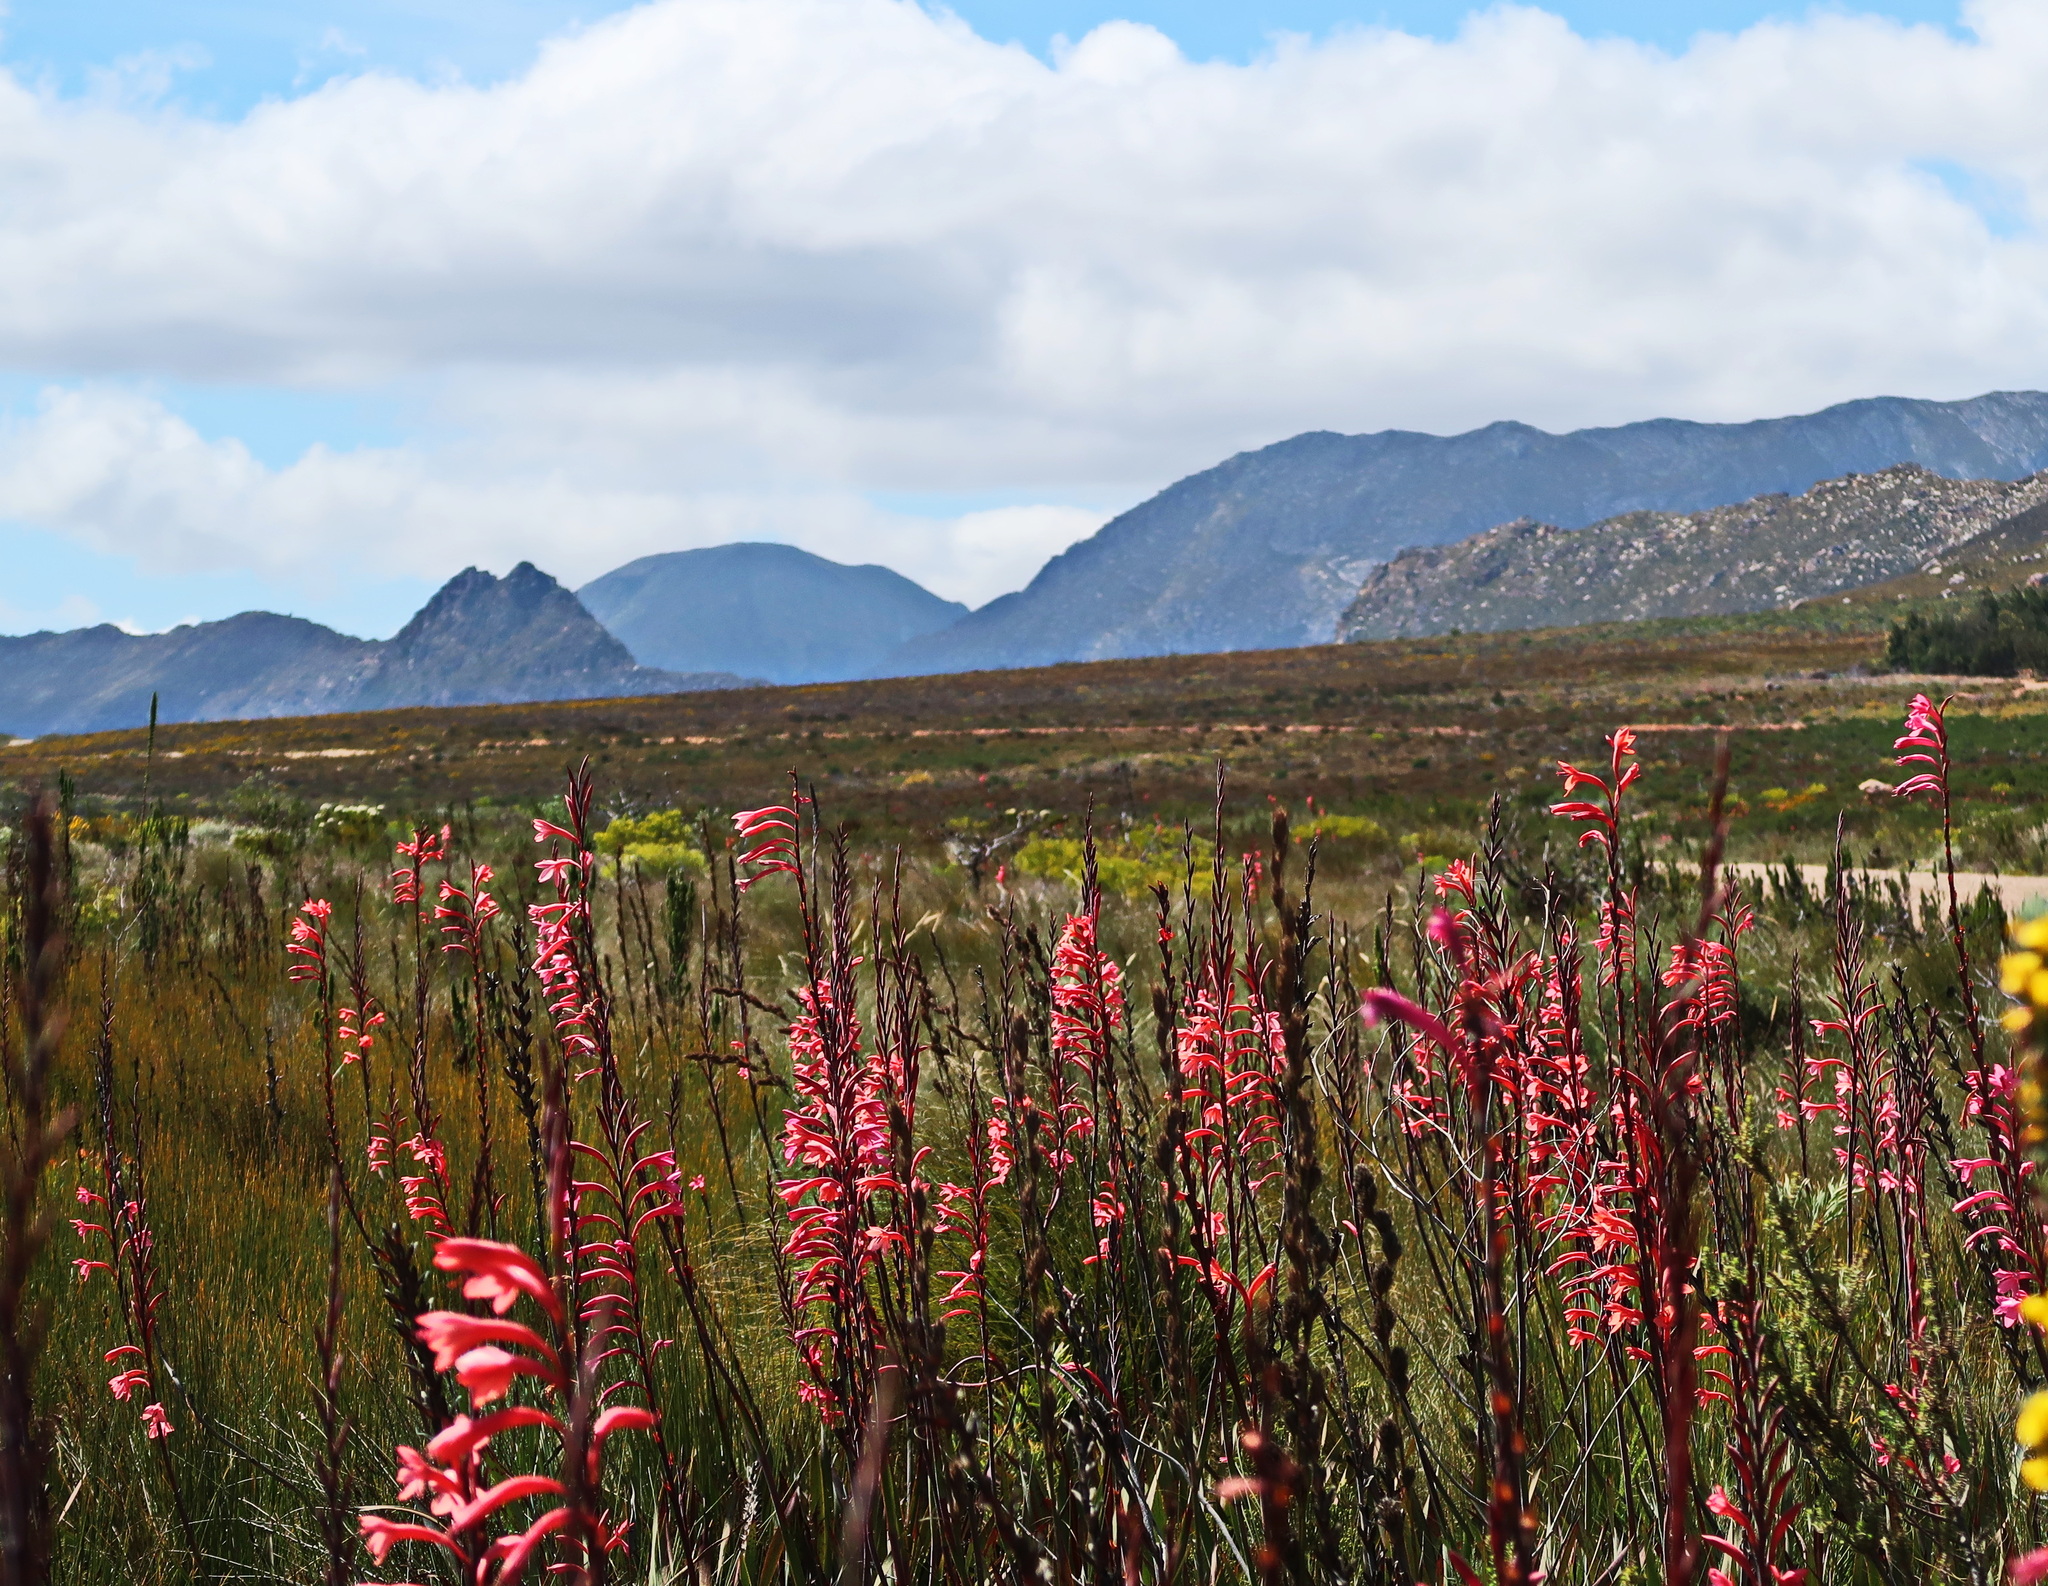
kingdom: Plantae
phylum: Tracheophyta
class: Liliopsida
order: Asparagales
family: Iridaceae
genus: Watsonia
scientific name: Watsonia fourcadei
